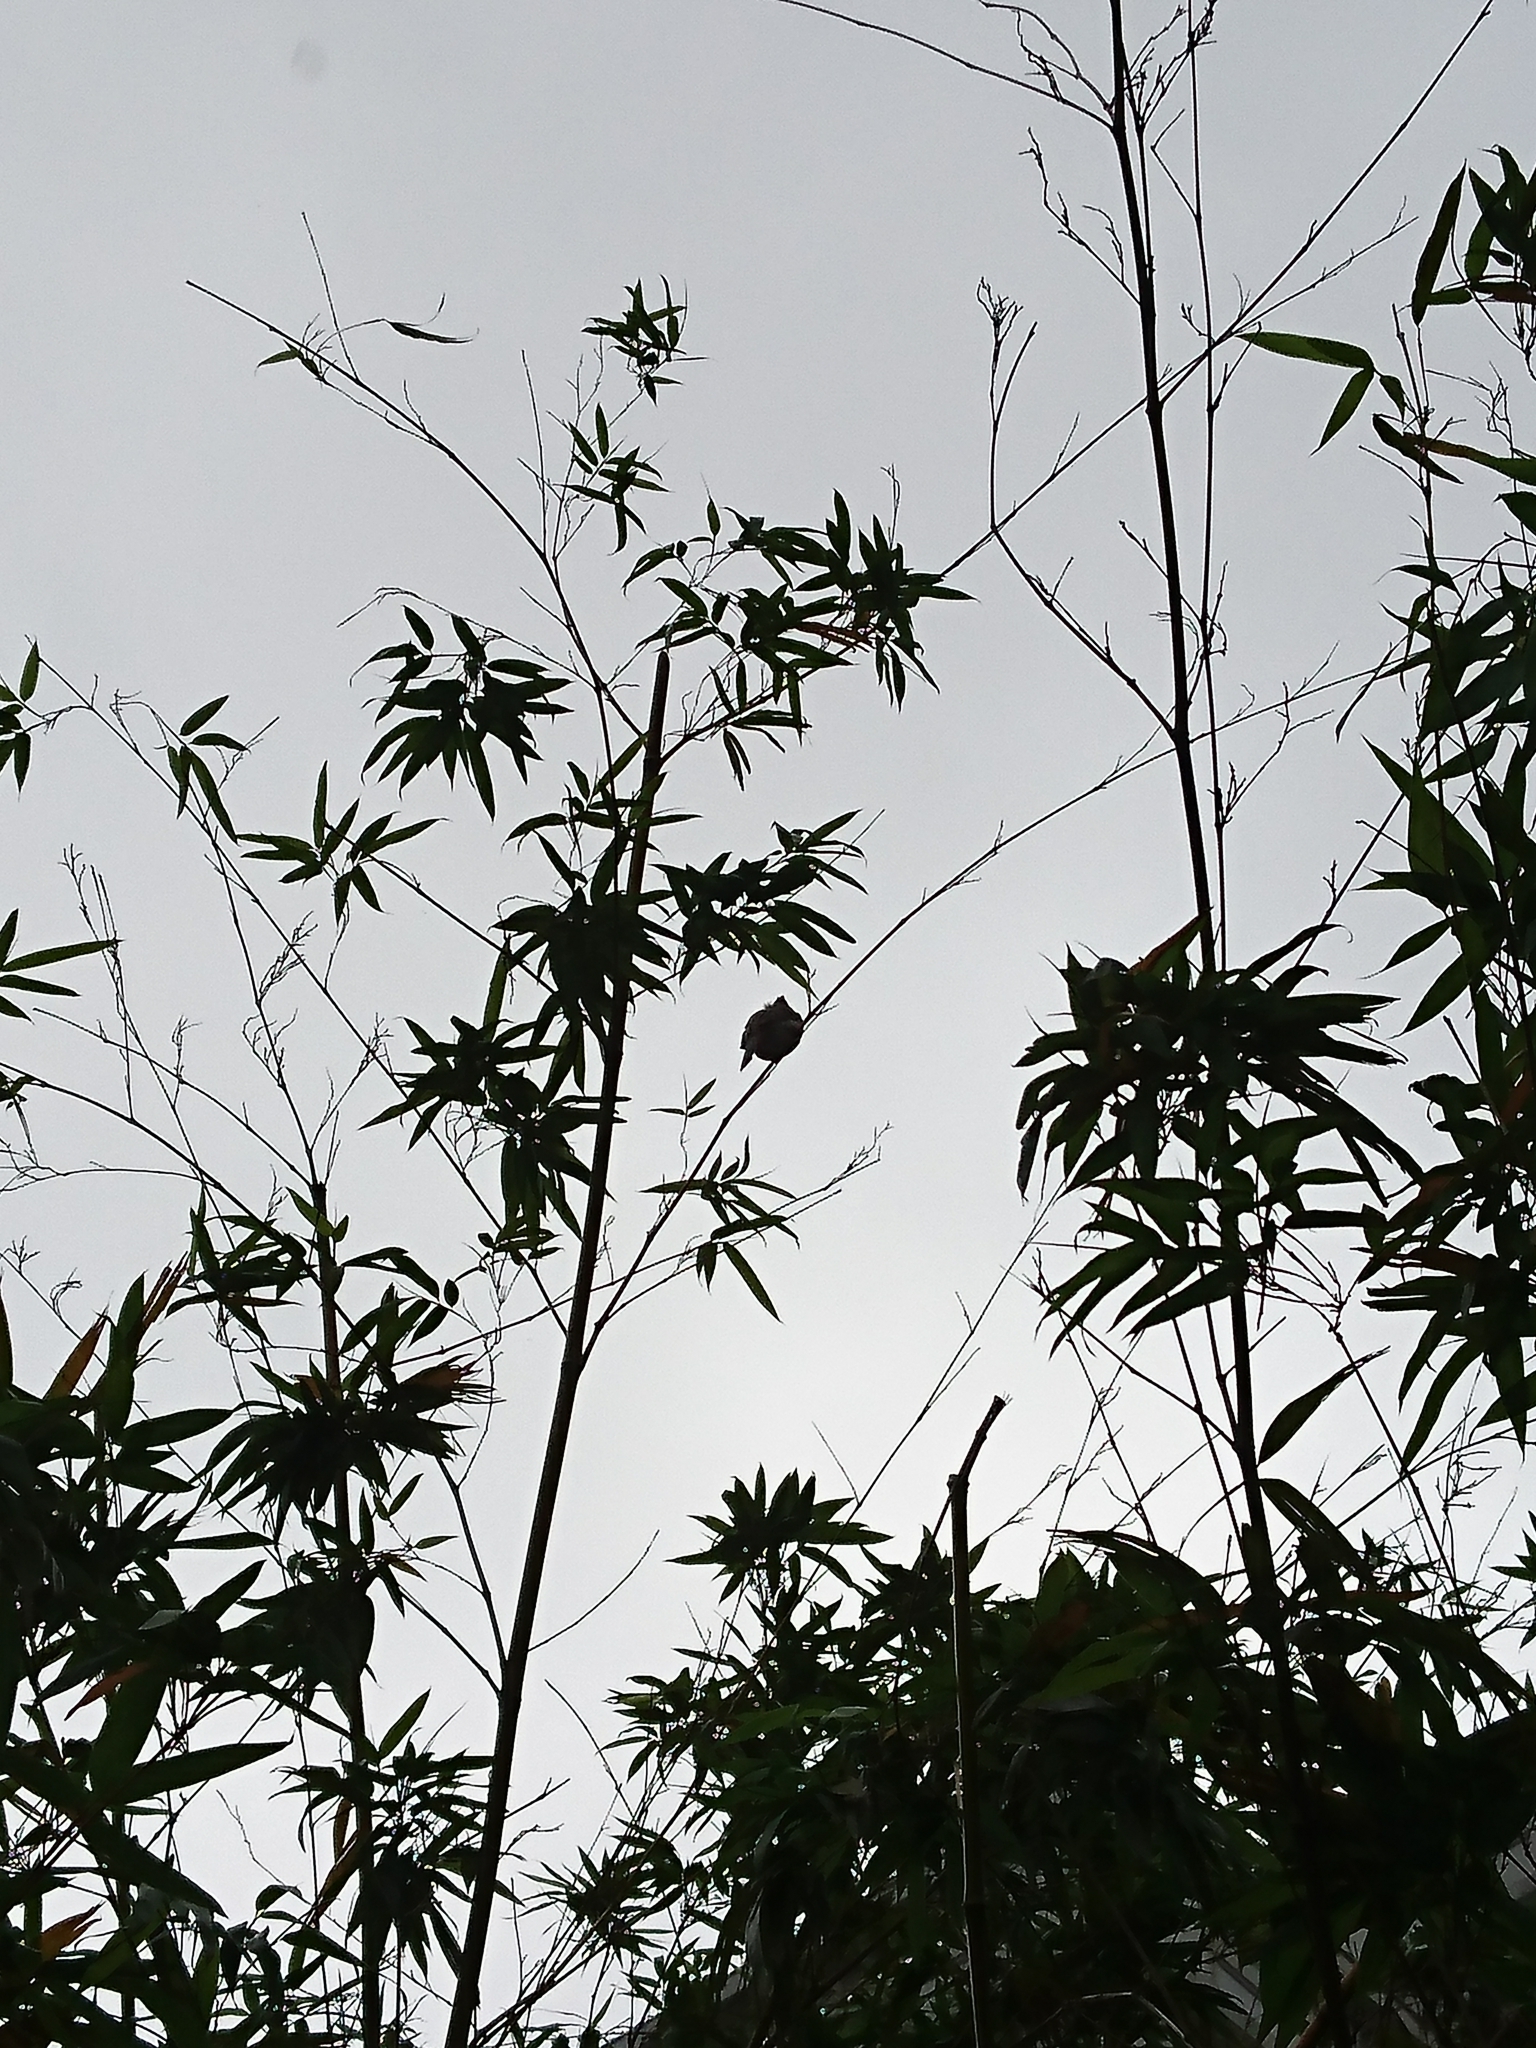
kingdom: Animalia
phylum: Chordata
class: Aves
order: Passeriformes
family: Pycnonotidae
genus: Pycnonotus
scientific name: Pycnonotus jocosus
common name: Red-whiskered bulbul
